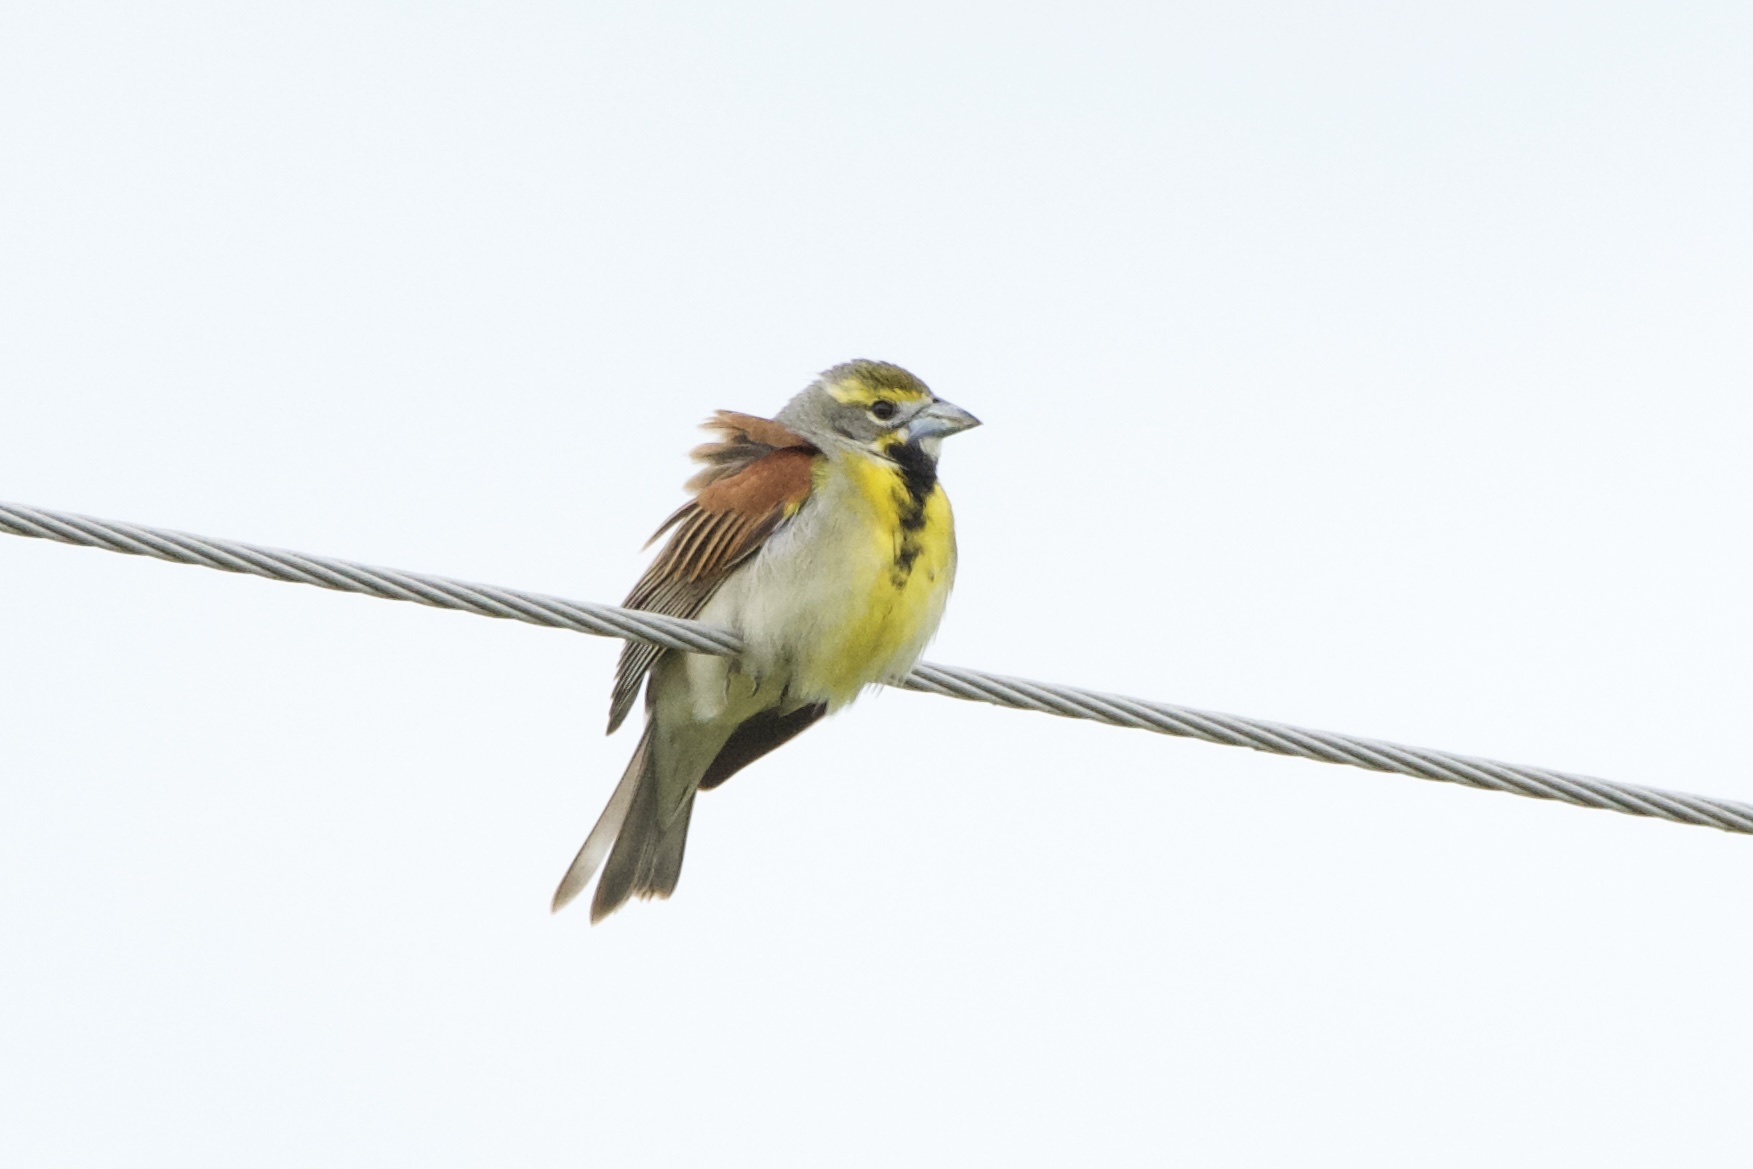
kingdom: Animalia
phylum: Chordata
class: Aves
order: Passeriformes
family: Cardinalidae
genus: Spiza
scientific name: Spiza americana
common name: Dickcissel
